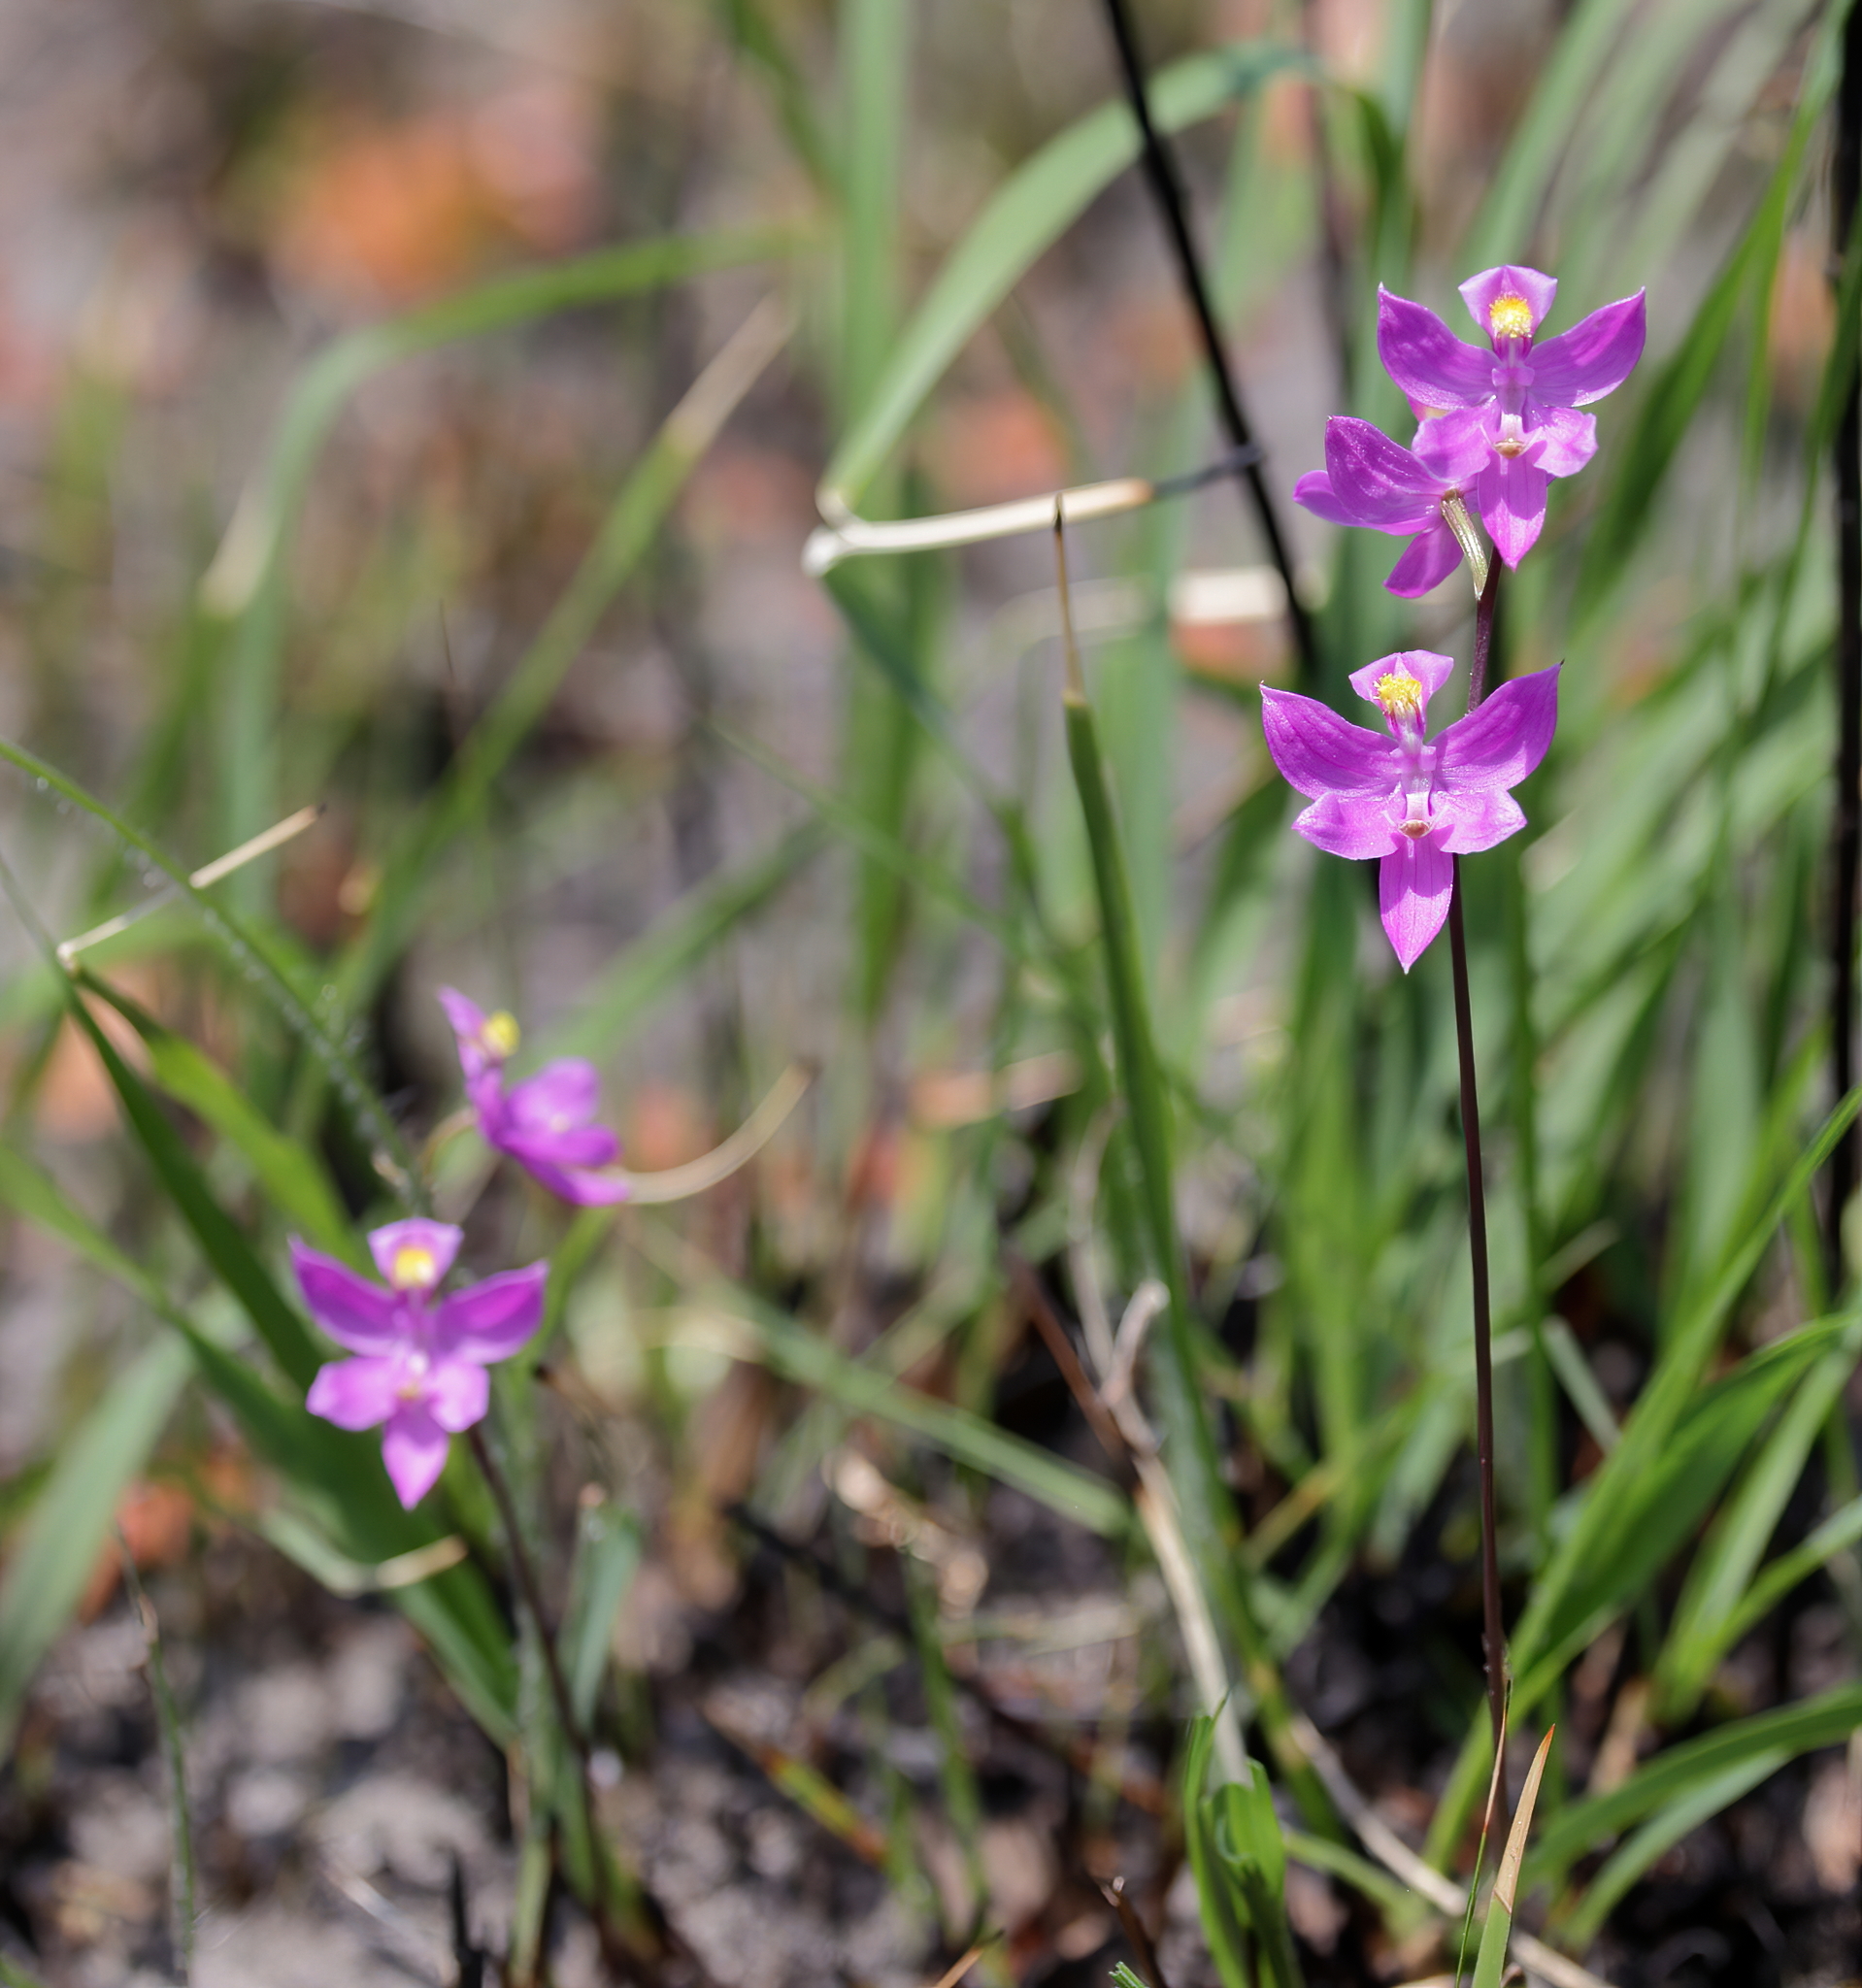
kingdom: Plantae
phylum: Tracheophyta
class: Liliopsida
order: Asparagales
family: Orchidaceae
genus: Calopogon
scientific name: Calopogon multiflorus
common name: Many-flowered grass-pink orchid
